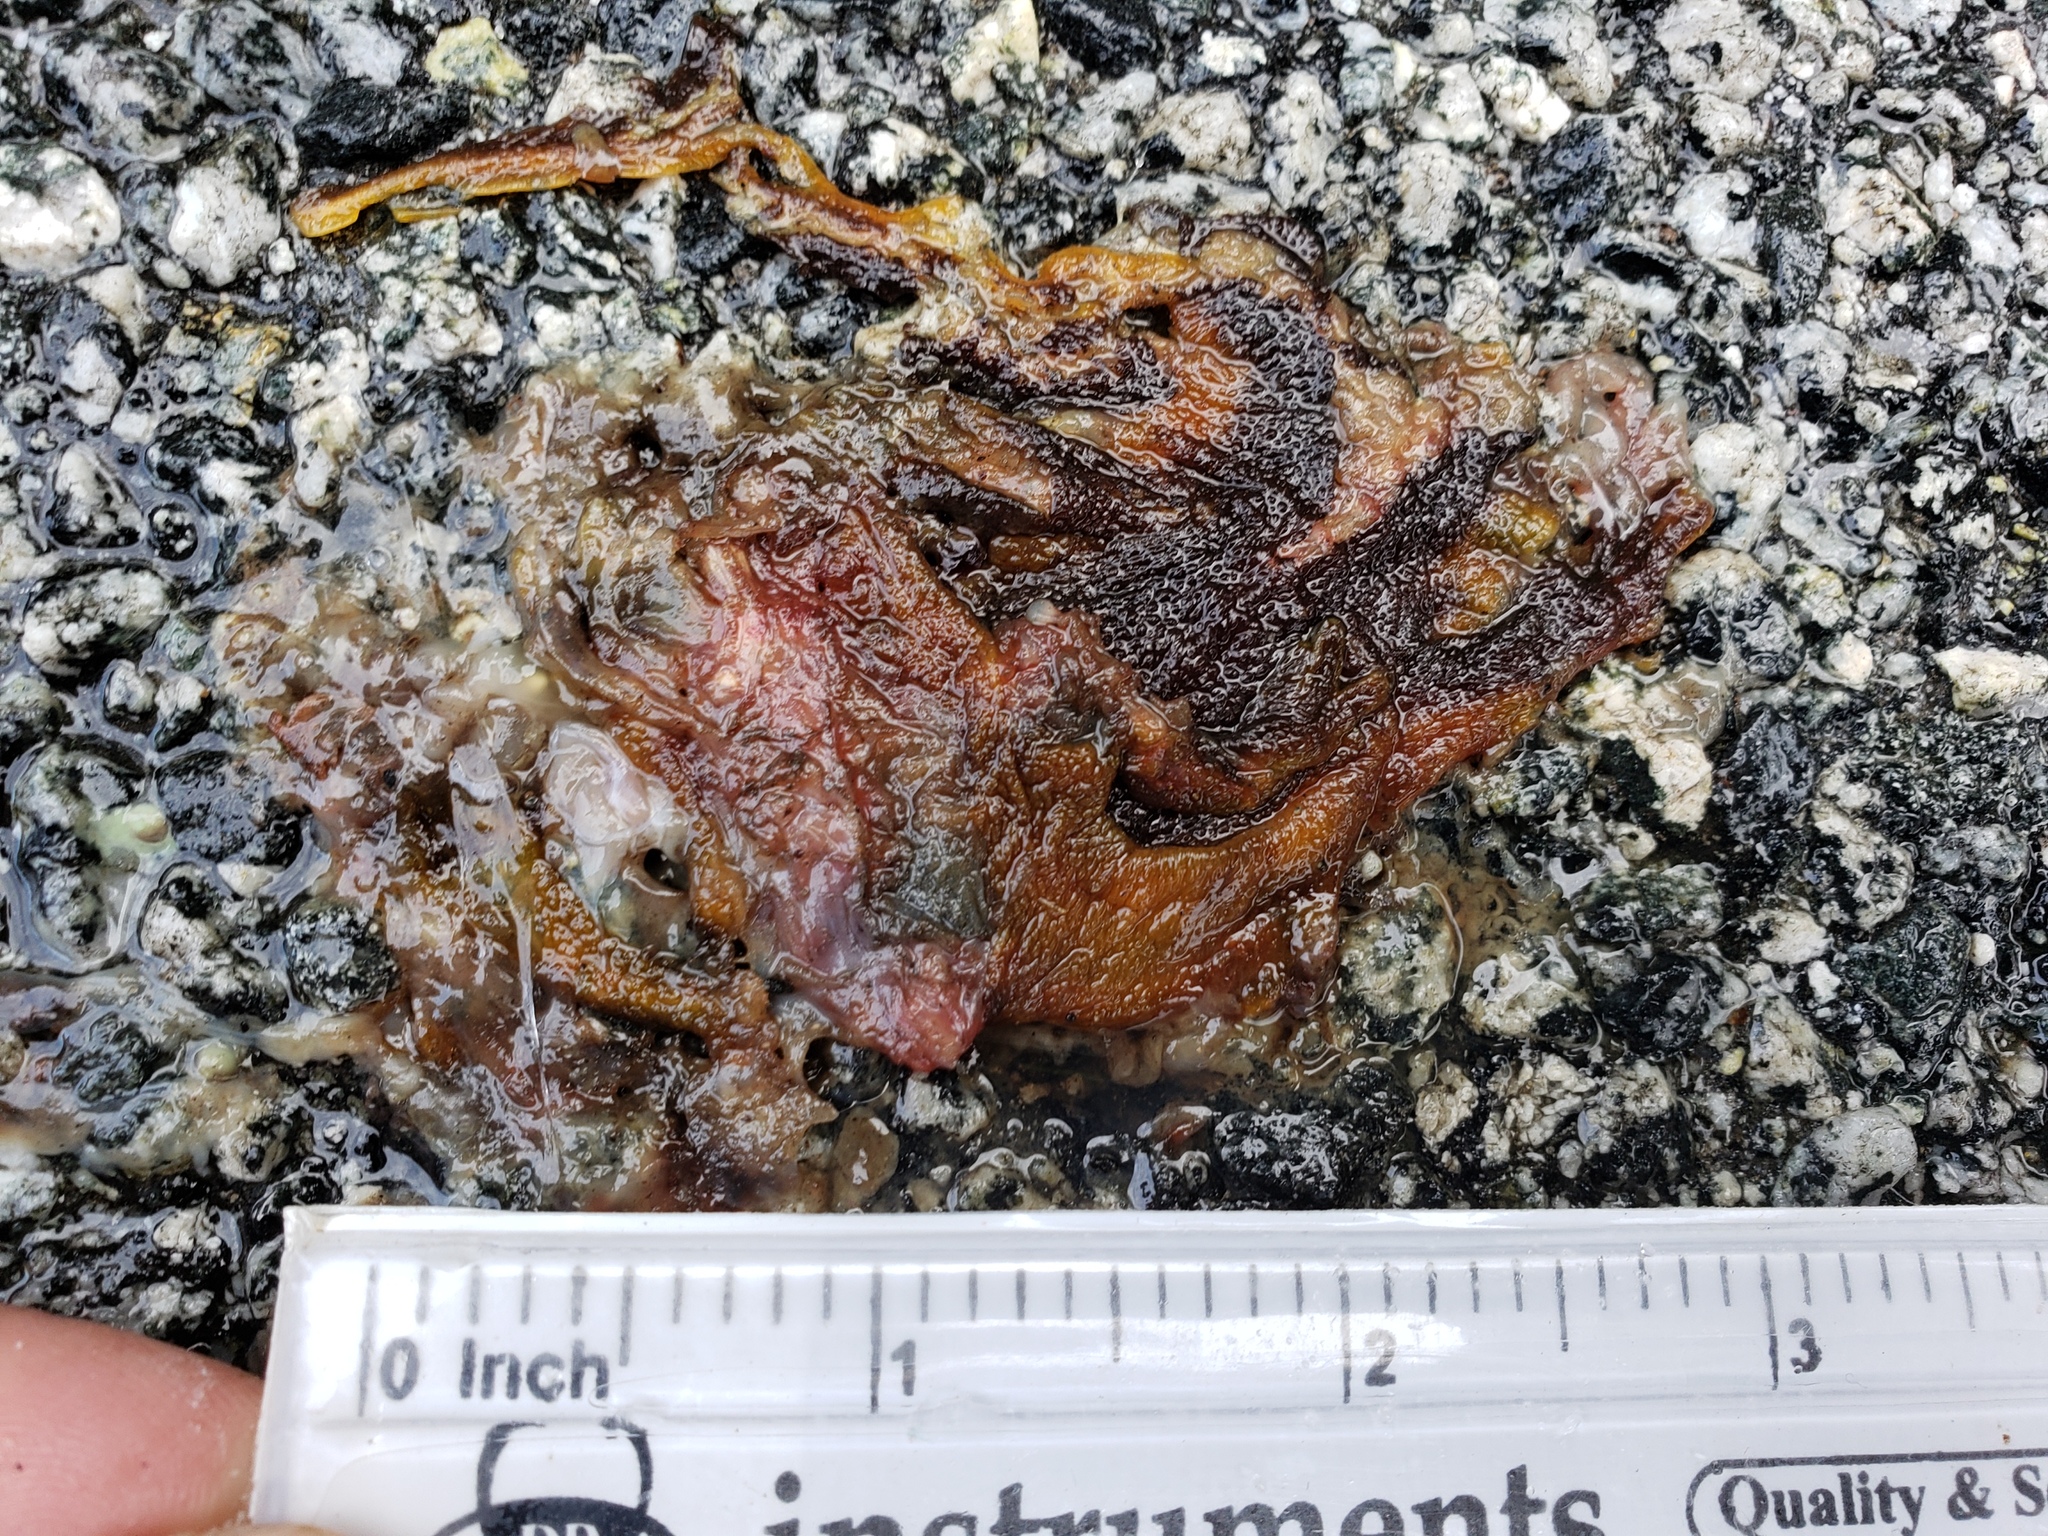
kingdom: Animalia
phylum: Chordata
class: Amphibia
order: Caudata
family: Salamandridae
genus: Taricha
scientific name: Taricha
